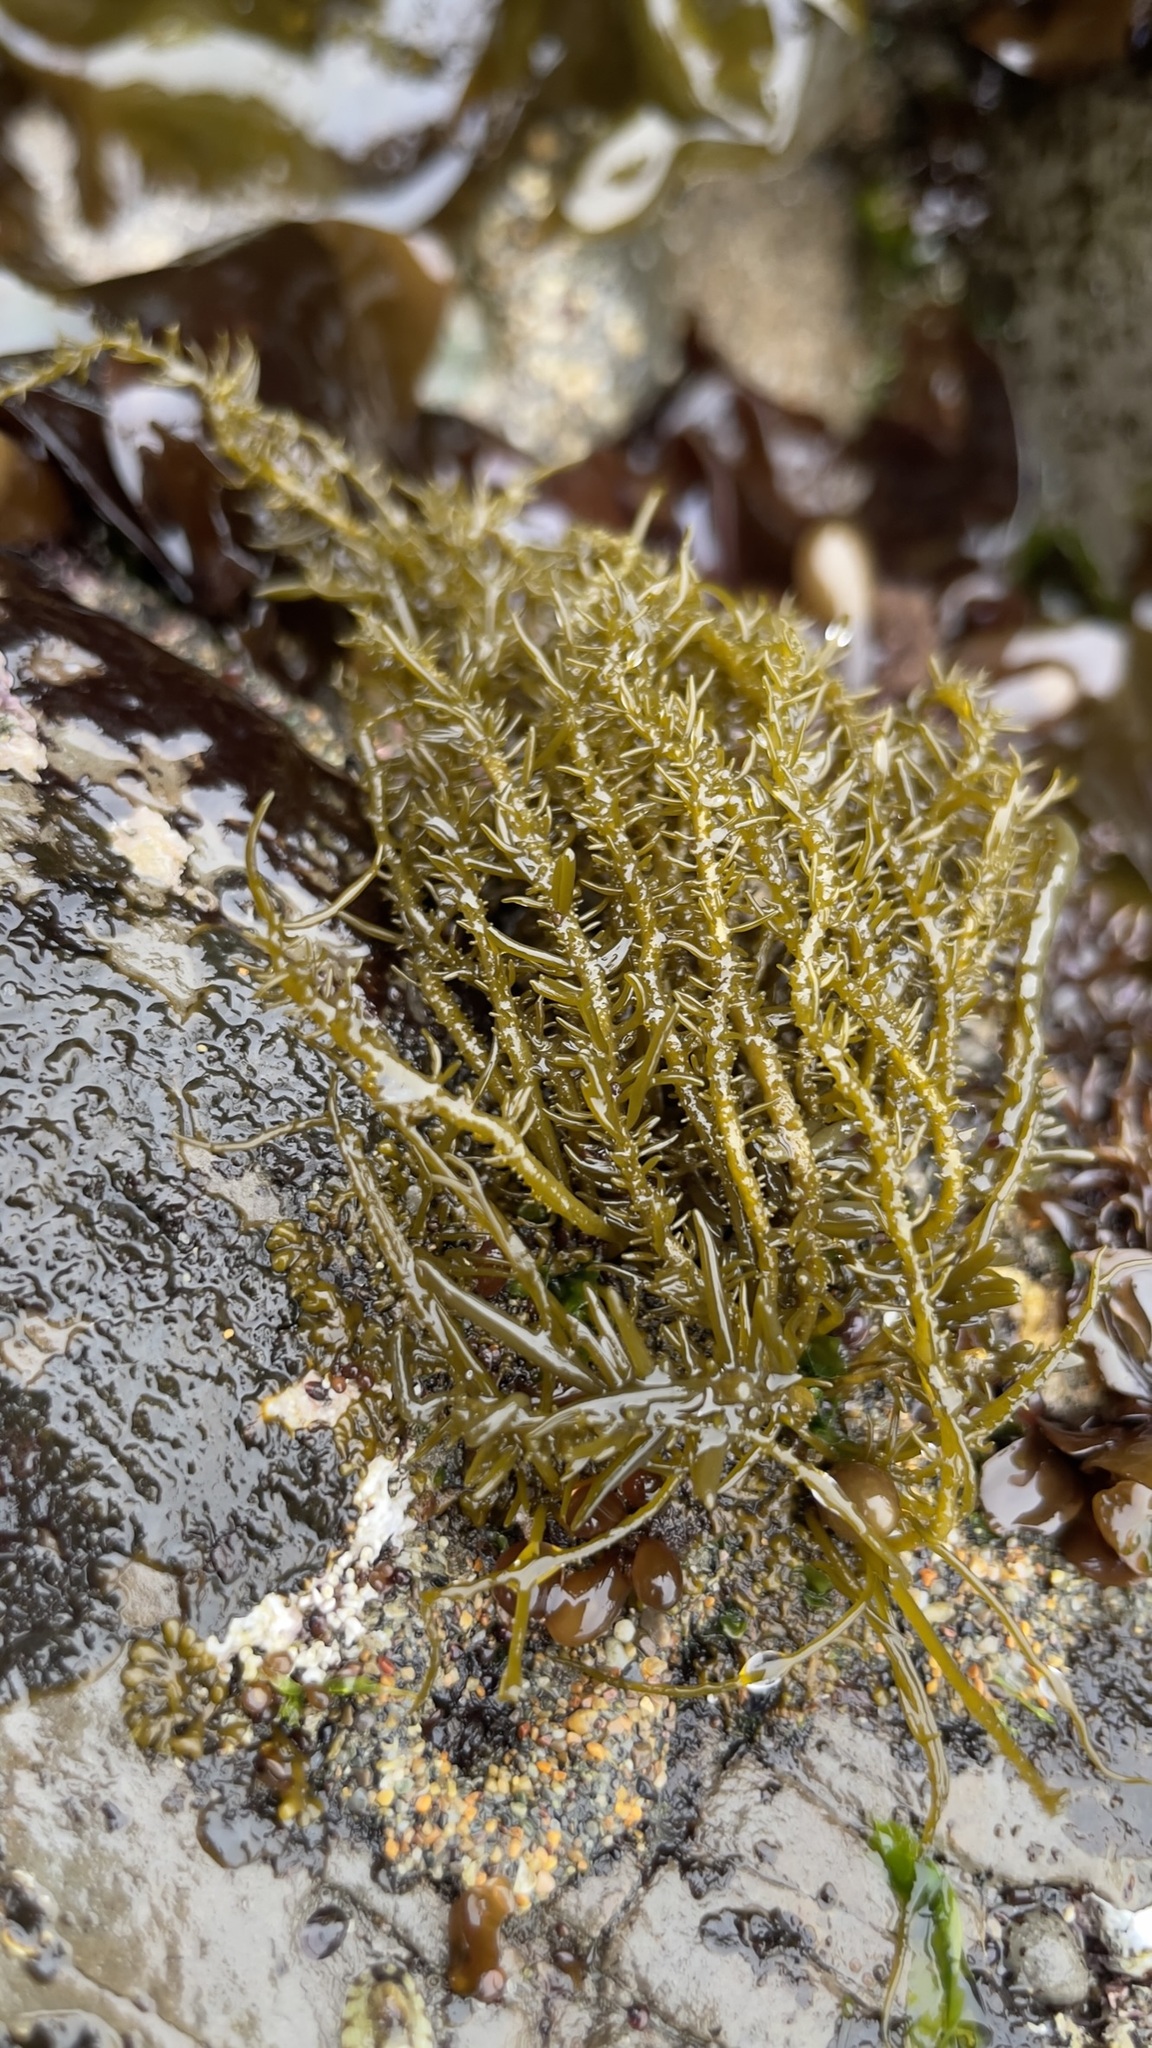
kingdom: Chromista
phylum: Ochrophyta
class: Phaeophyceae
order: Scytosiphonales
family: Scytosiphonaceae
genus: Analipus
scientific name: Analipus japonicus
